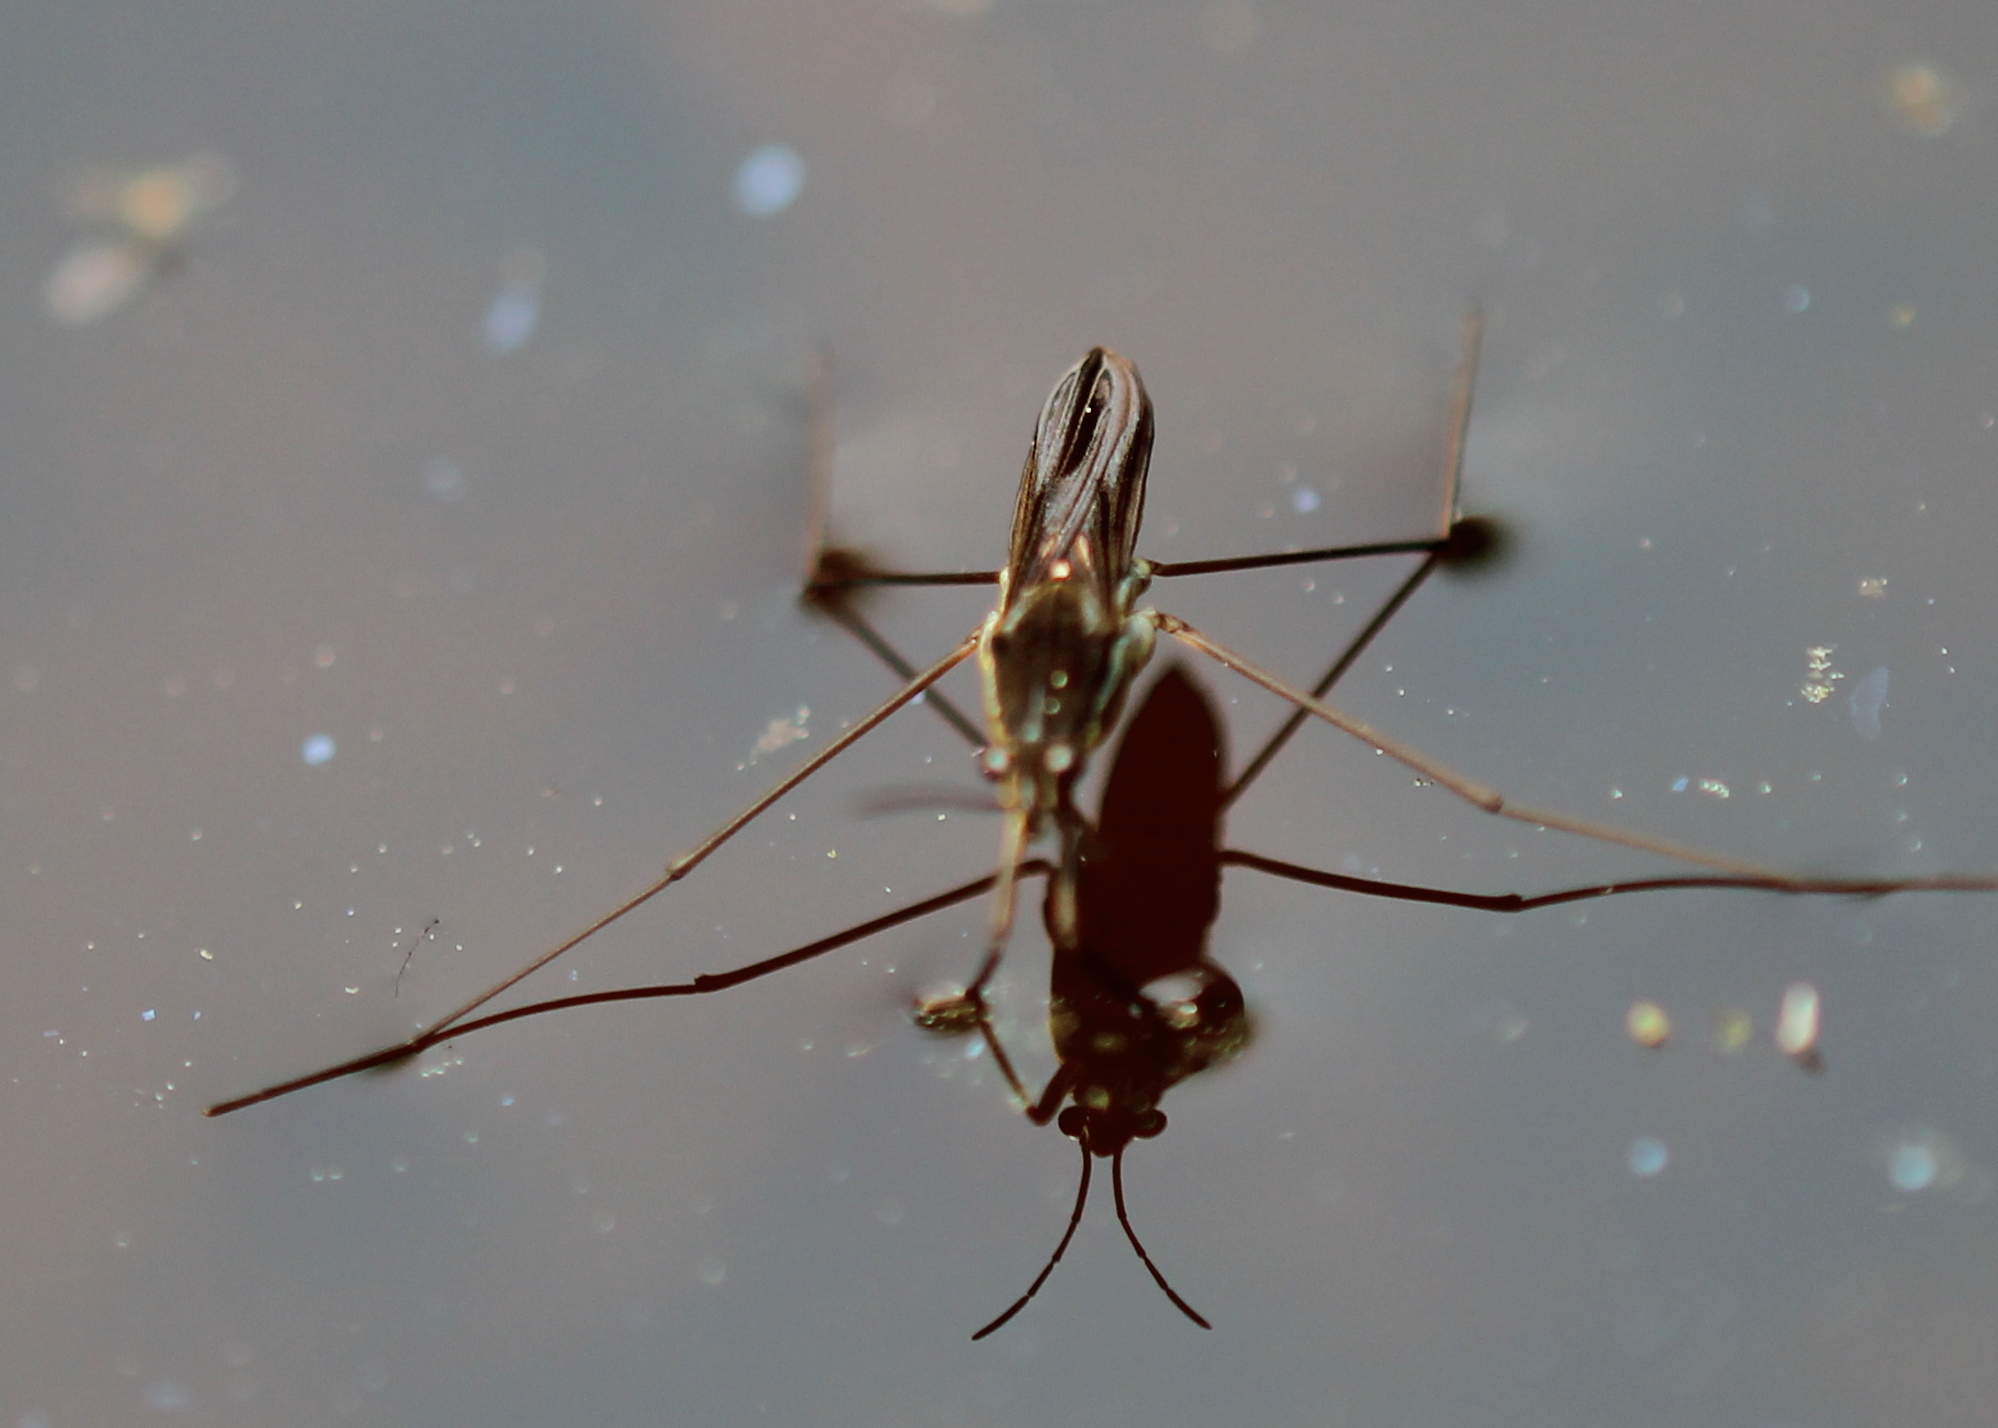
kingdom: Animalia
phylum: Arthropoda
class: Insecta
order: Hemiptera
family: Gerridae
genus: Gerris
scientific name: Gerris
